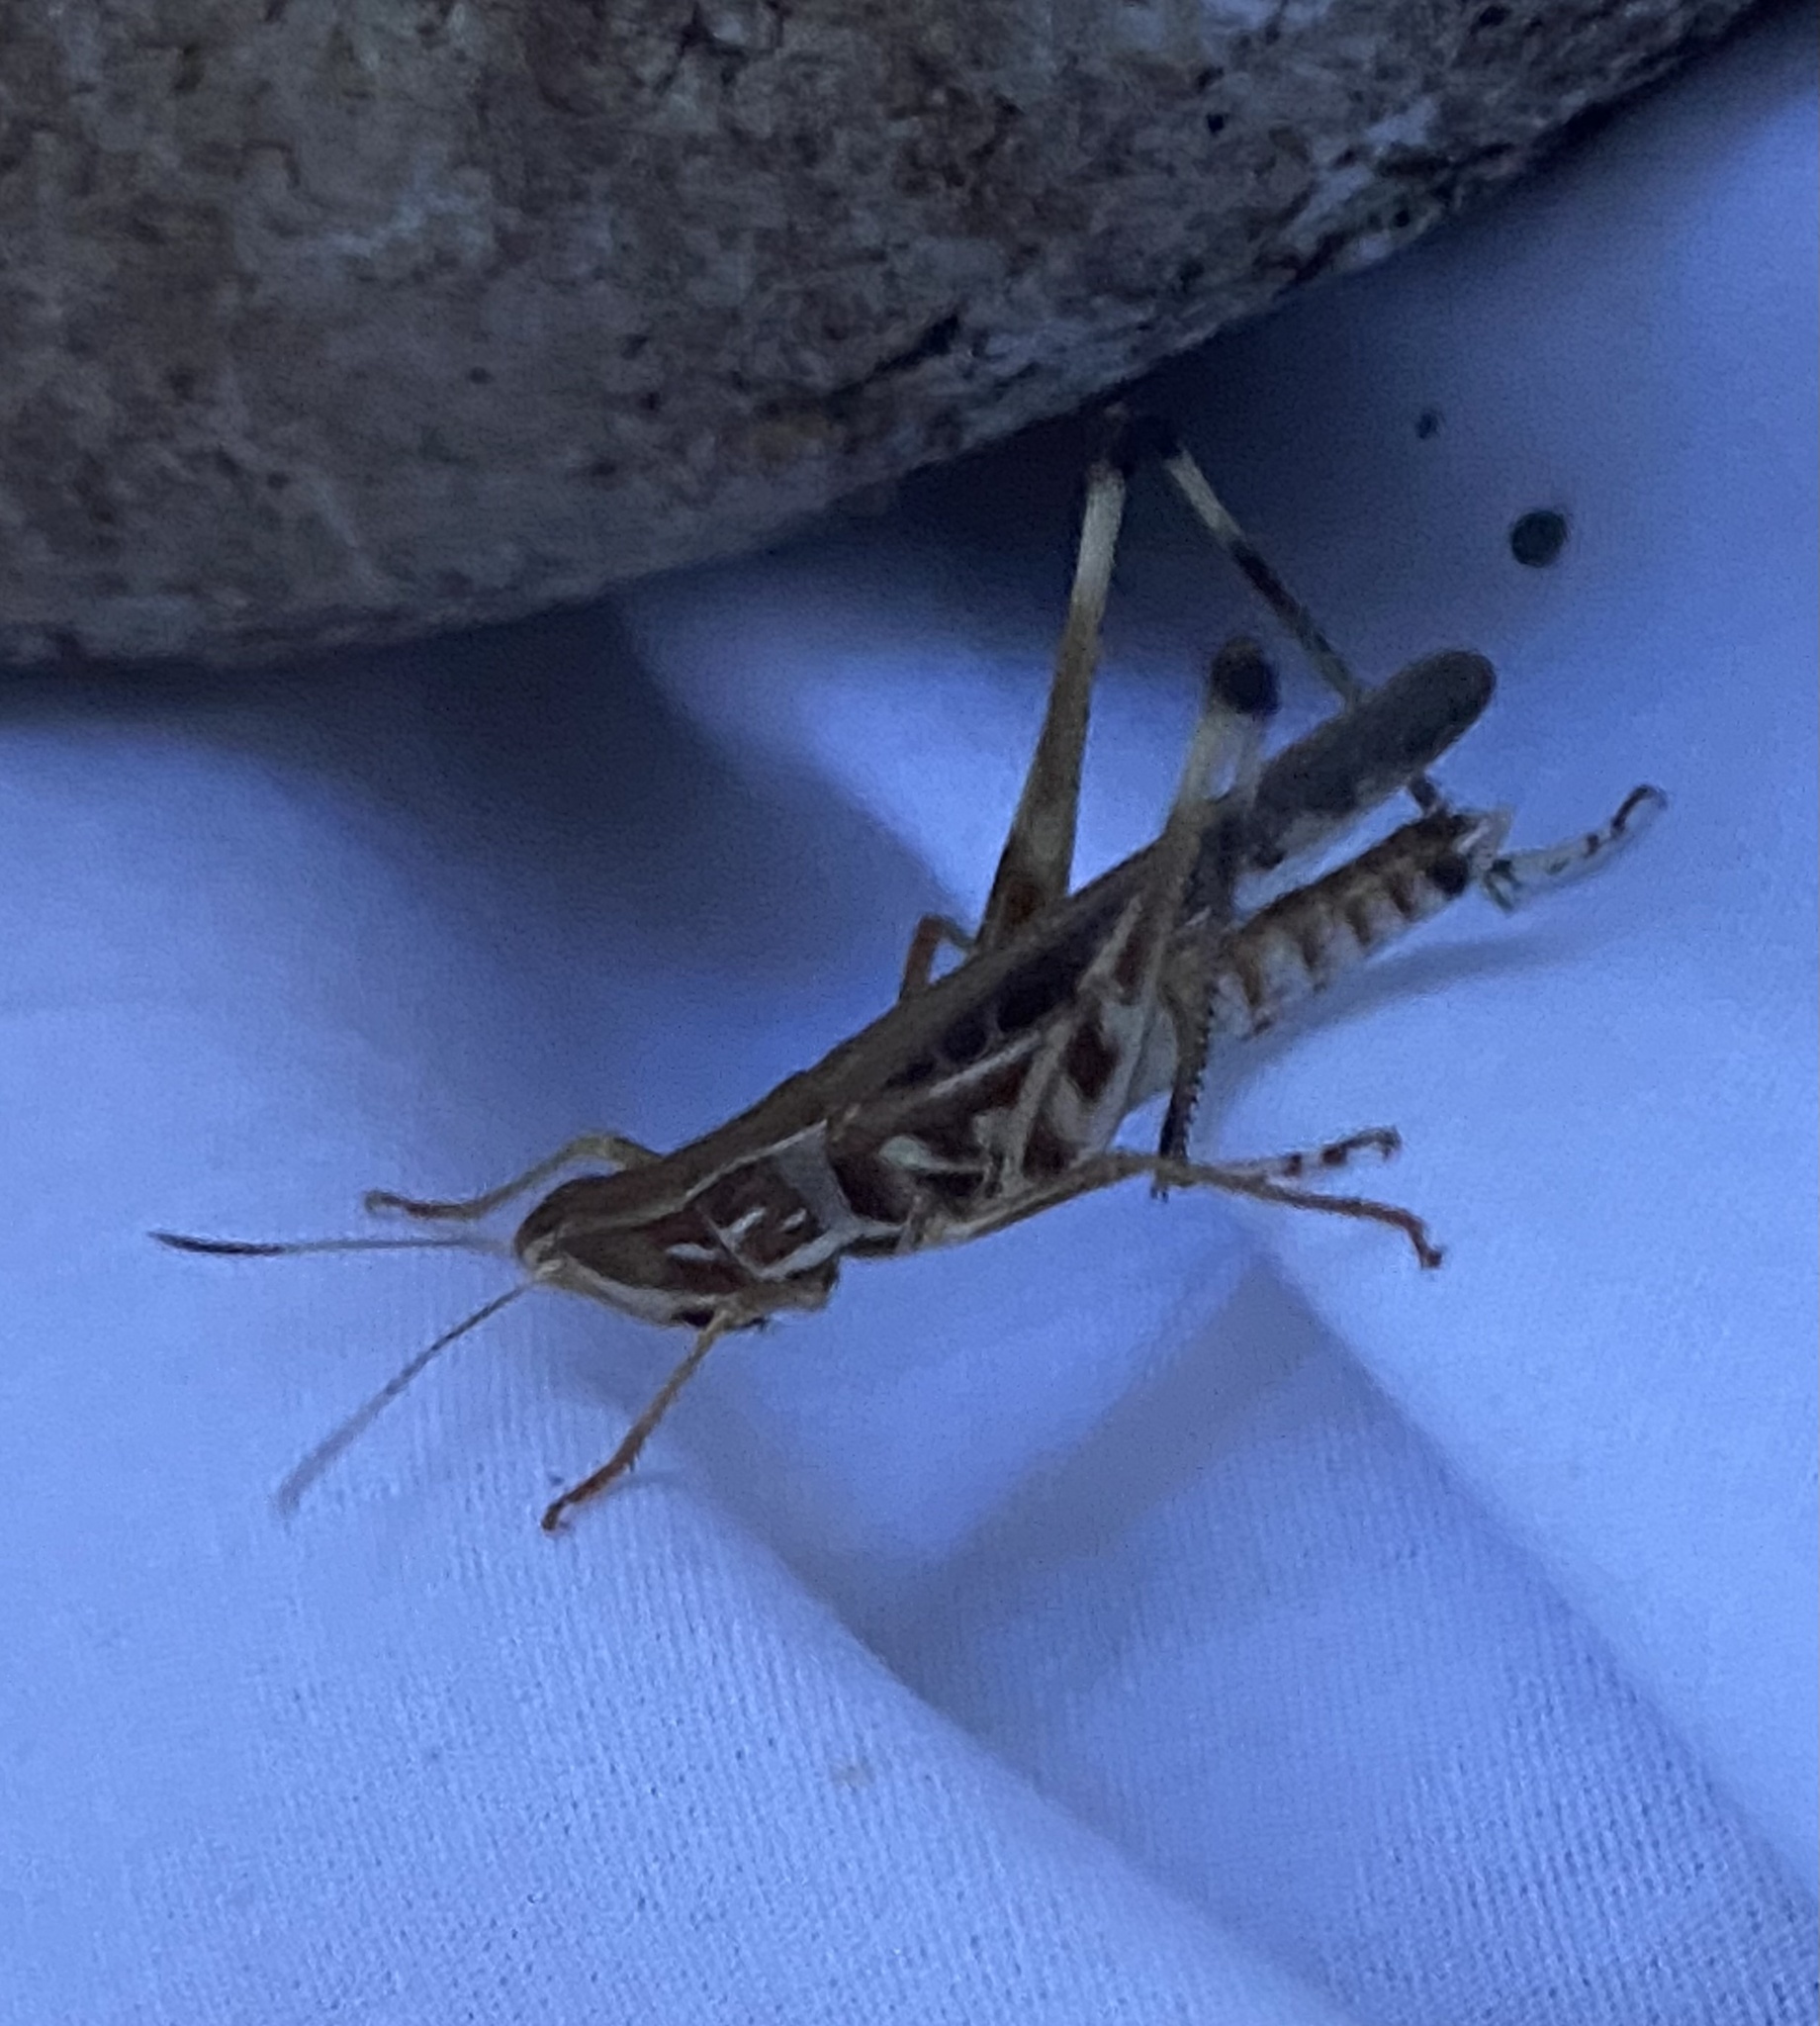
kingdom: Animalia
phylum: Arthropoda
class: Insecta
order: Orthoptera
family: Acrididae
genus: Syrbula
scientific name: Syrbula admirabilis
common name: Handsome grasshopper
